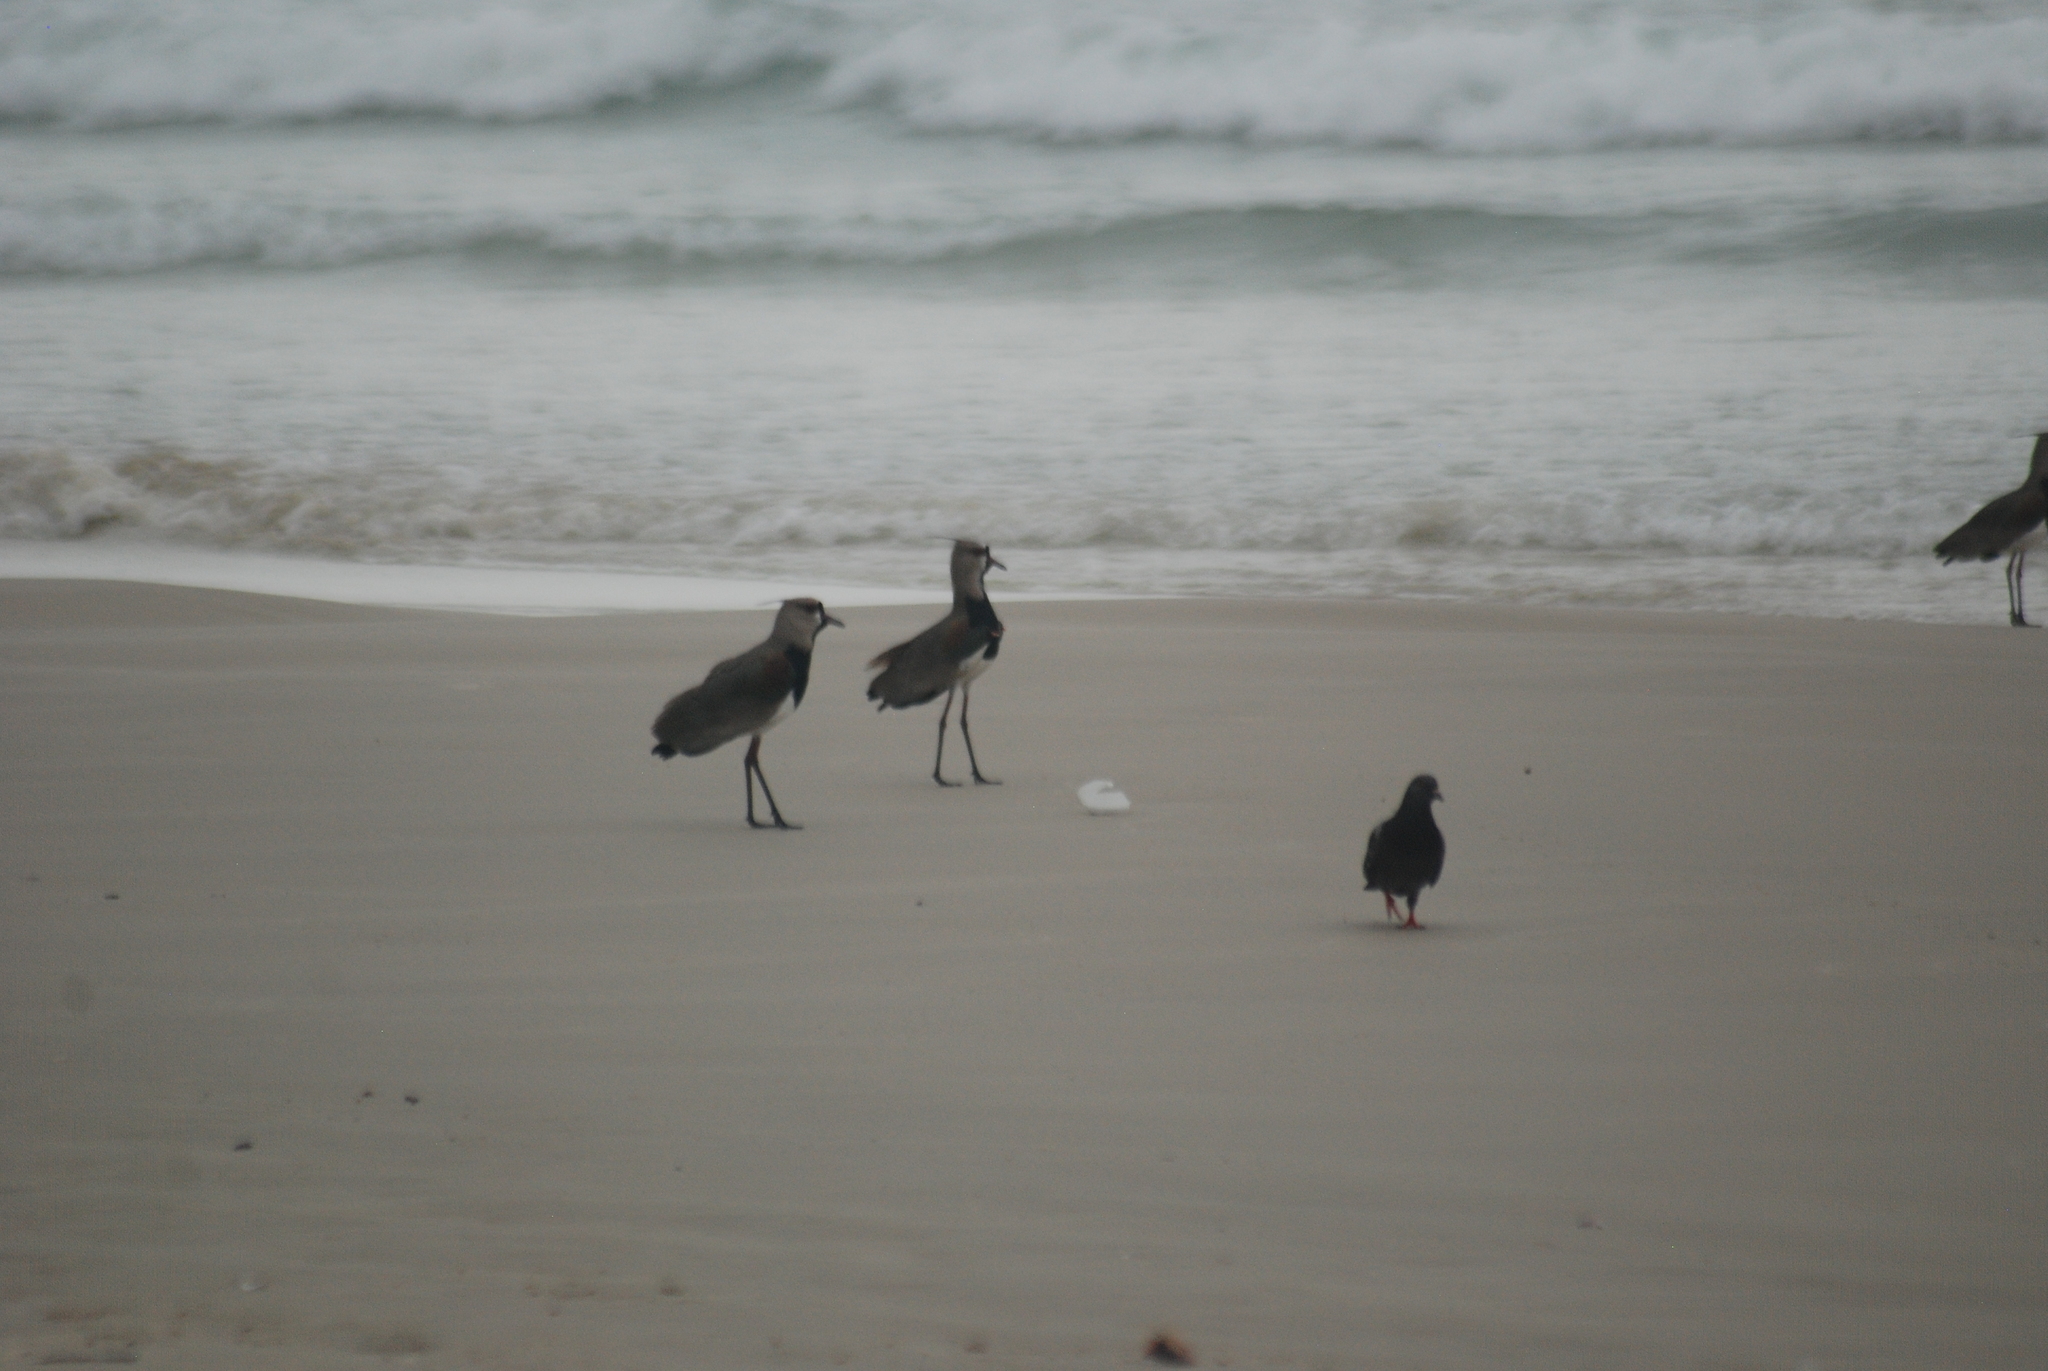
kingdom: Animalia
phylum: Chordata
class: Aves
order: Columbiformes
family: Columbidae
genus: Columba
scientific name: Columba livia
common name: Rock pigeon
